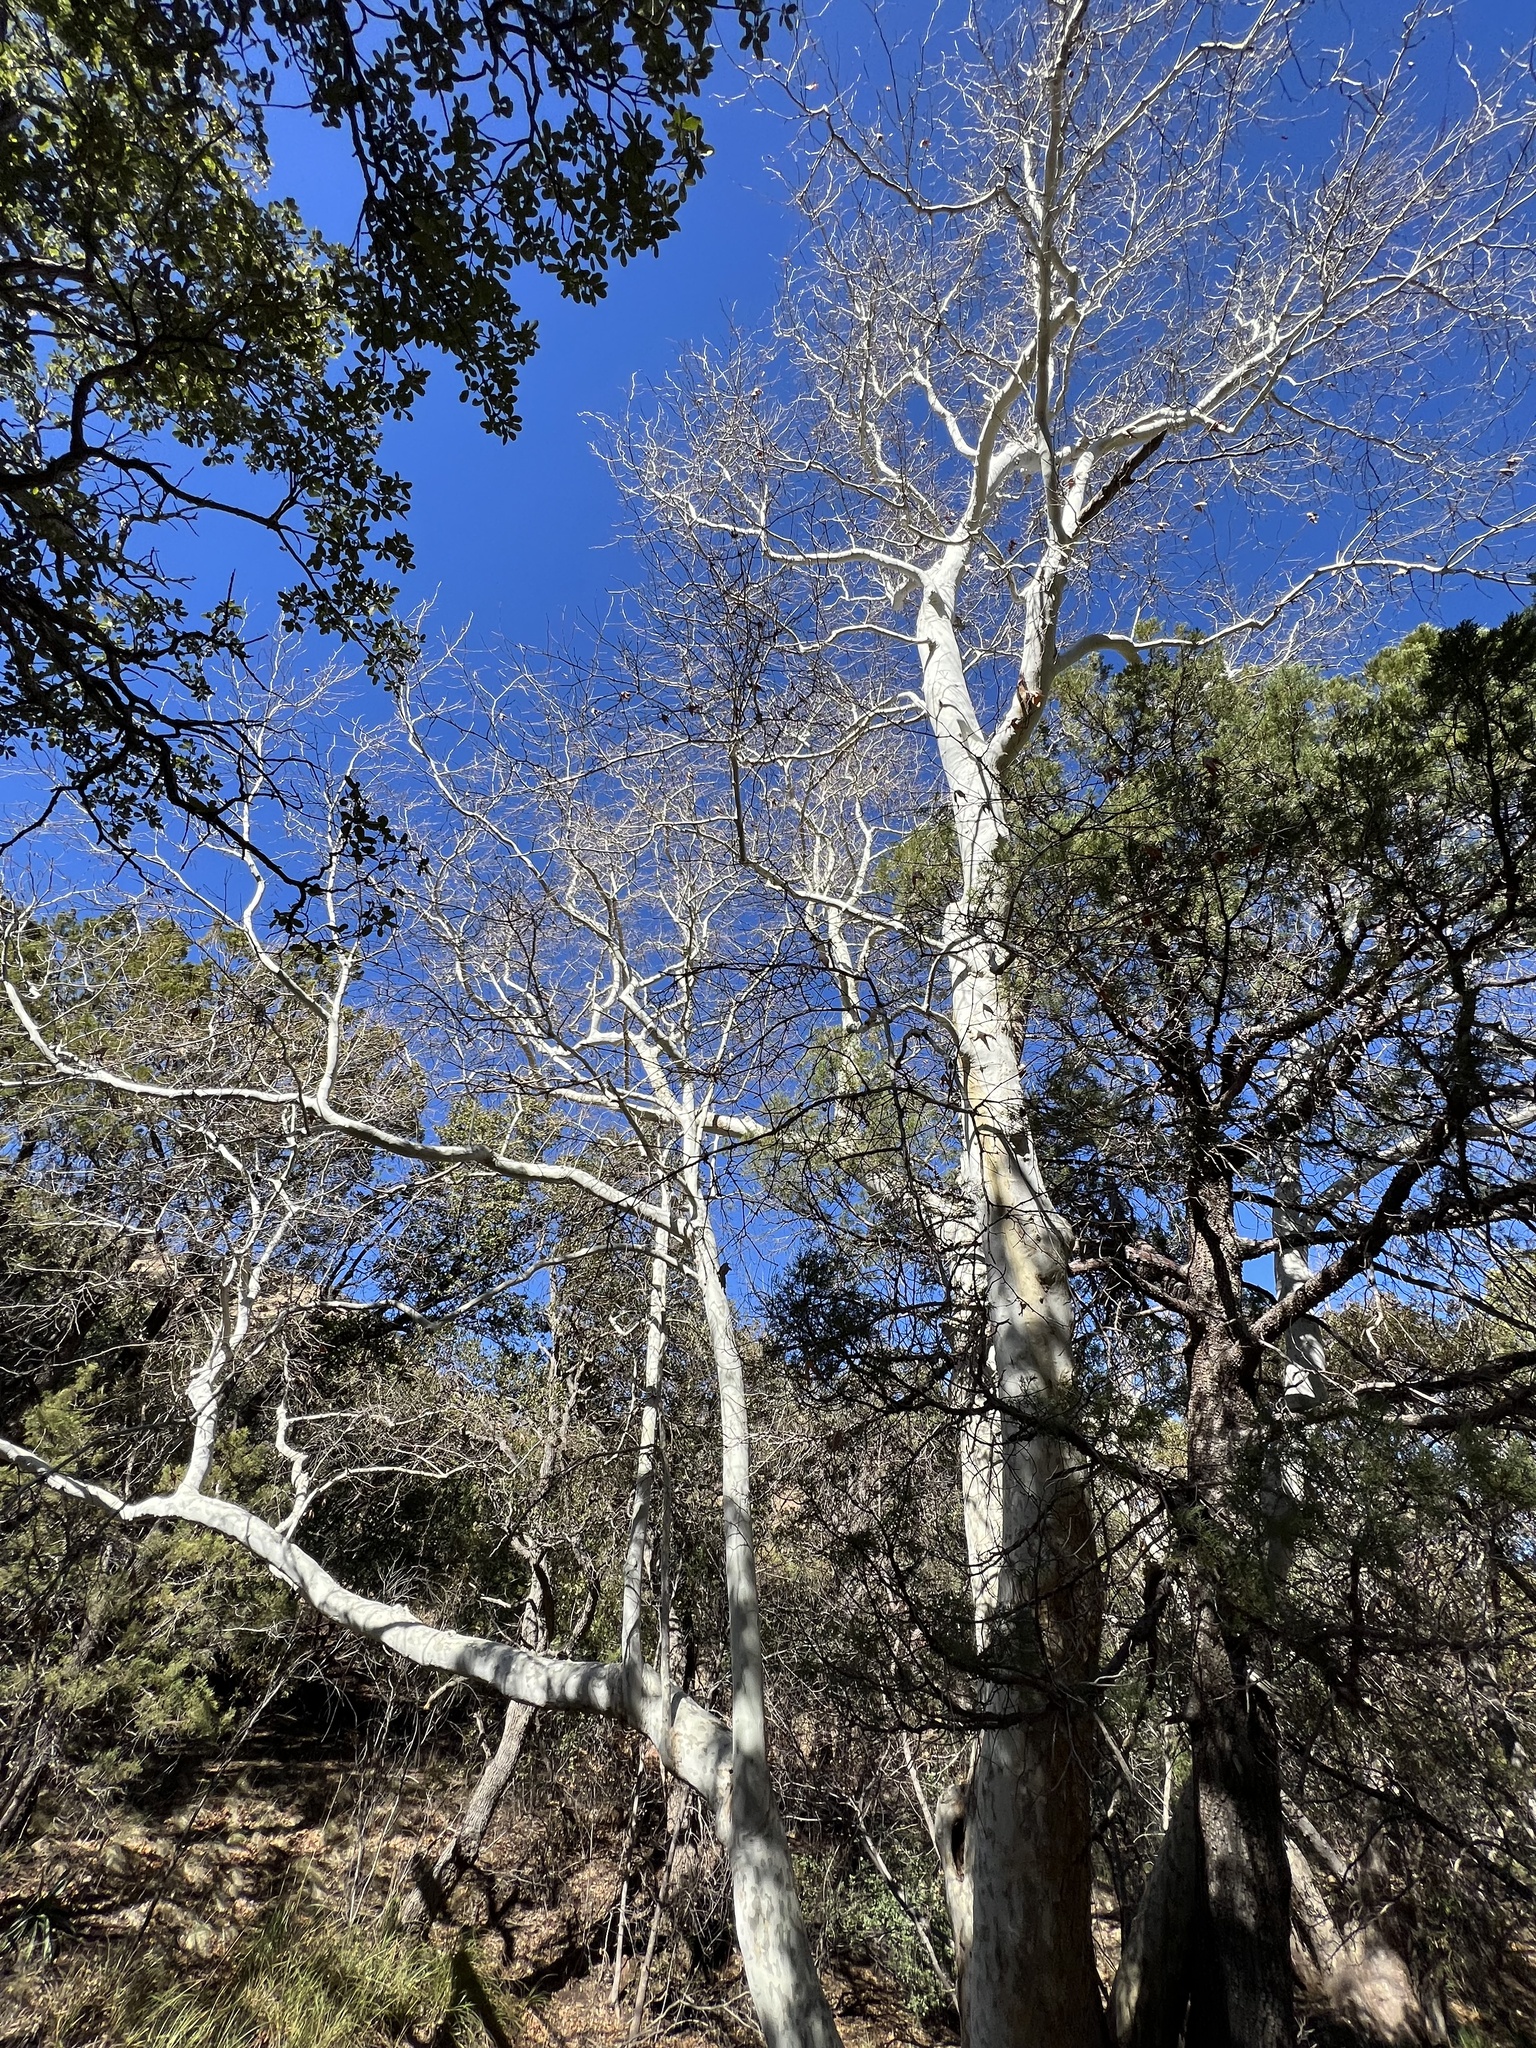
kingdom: Plantae
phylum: Tracheophyta
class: Magnoliopsida
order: Proteales
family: Platanaceae
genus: Platanus
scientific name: Platanus wrightii
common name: Arizona sycamore
